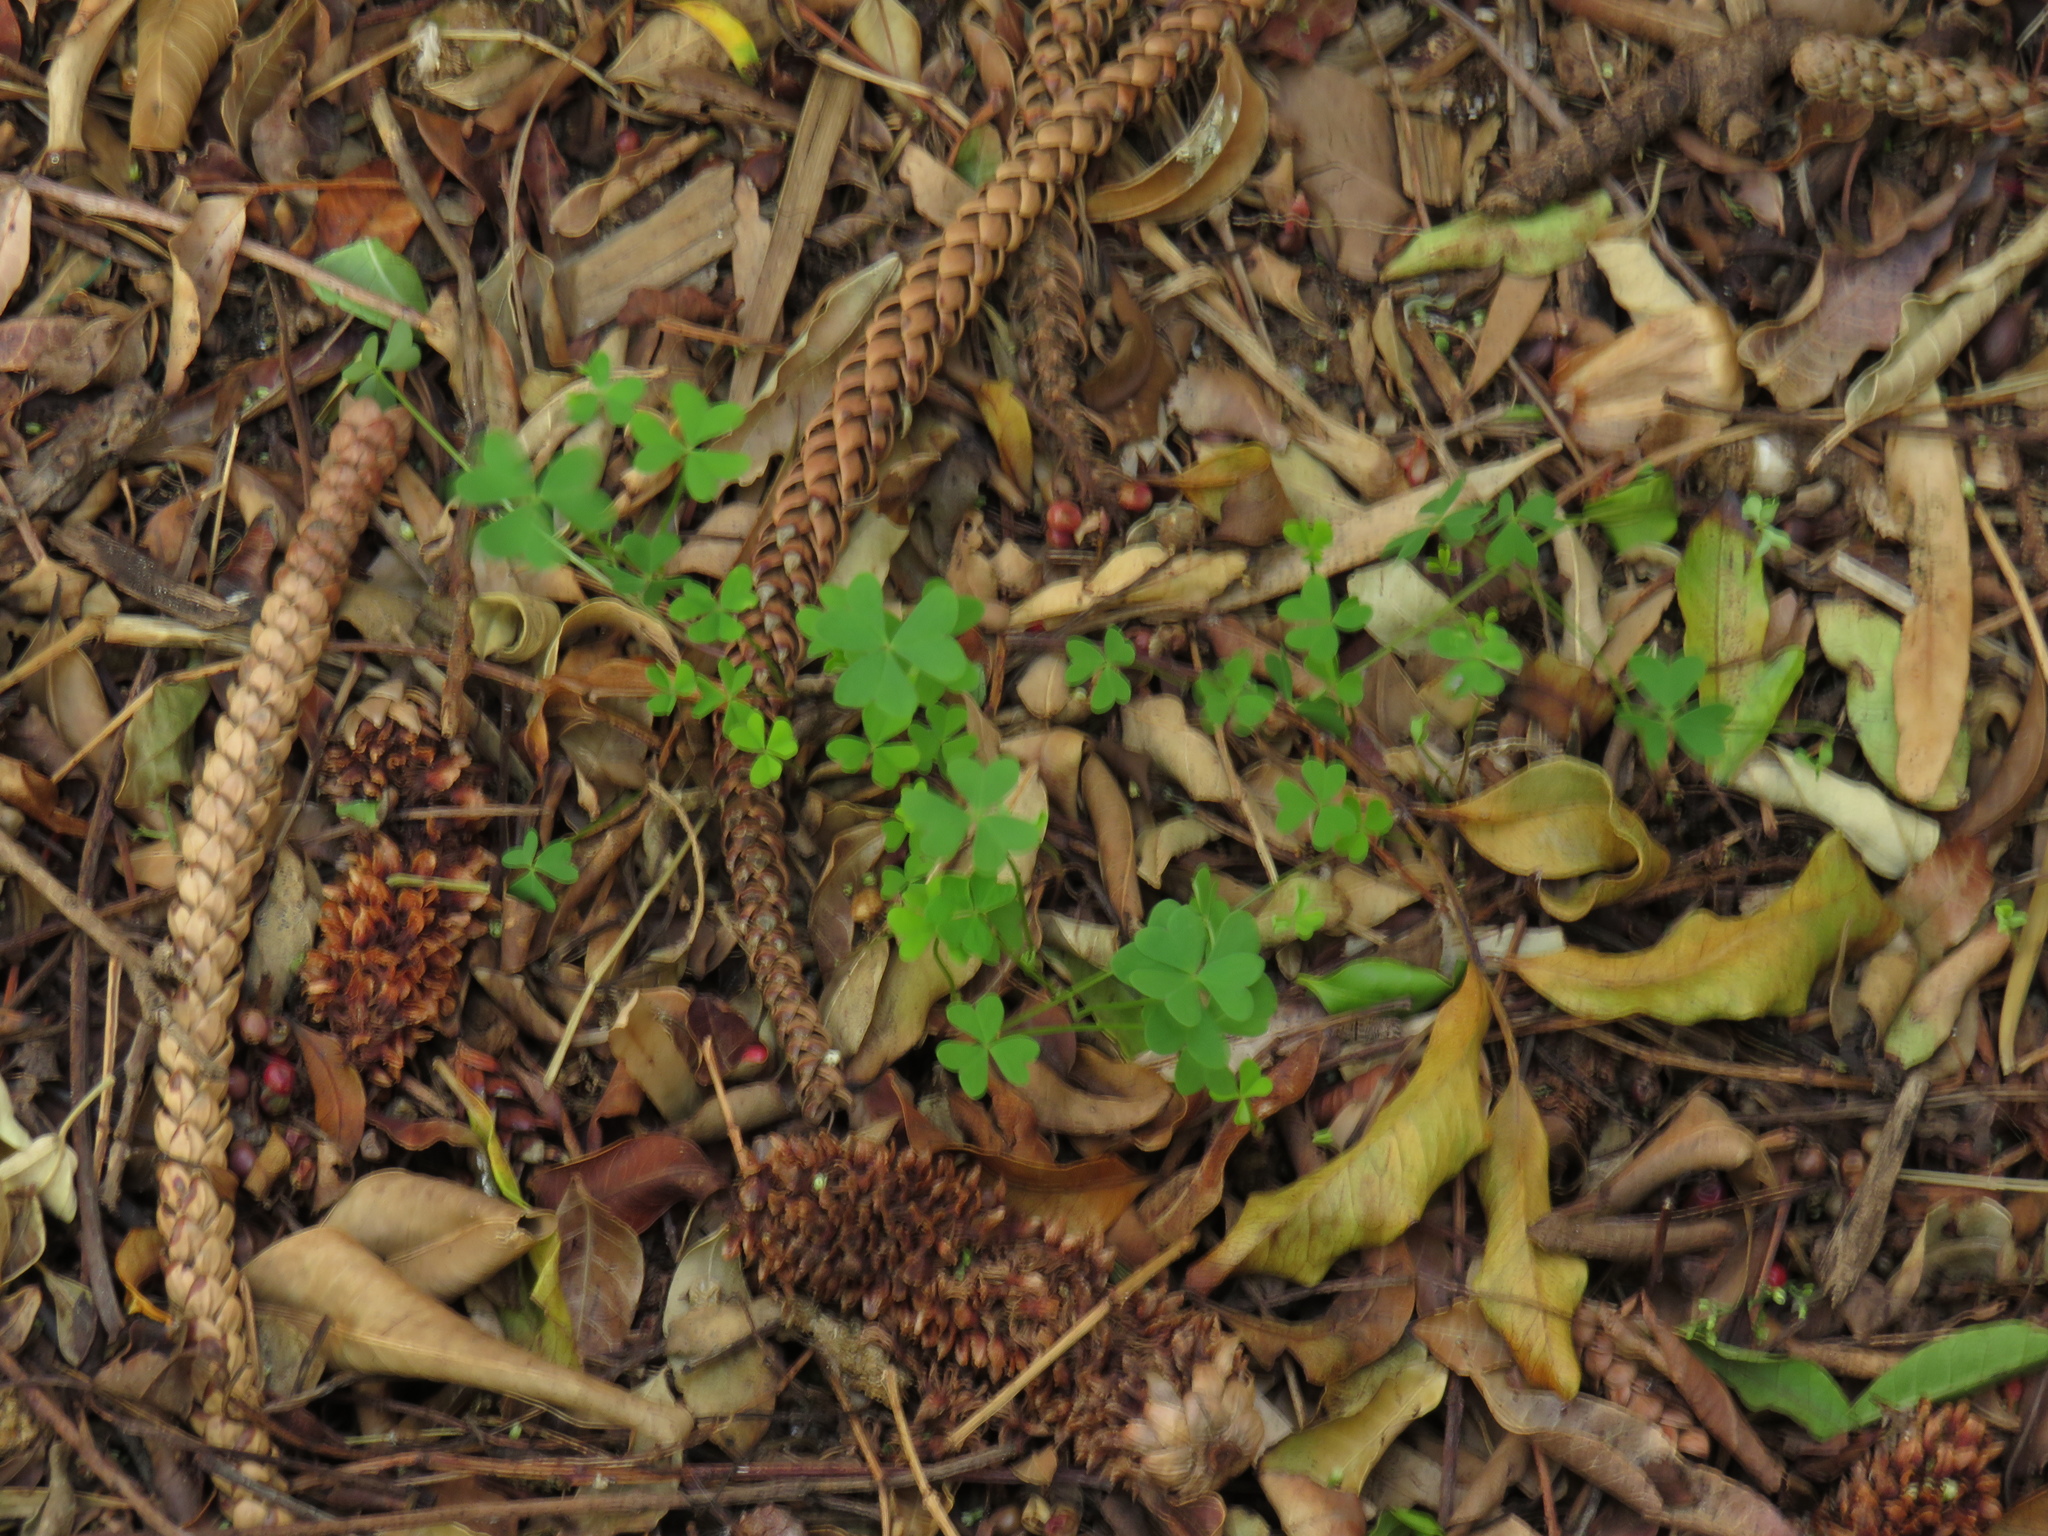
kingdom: Plantae
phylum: Tracheophyta
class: Magnoliopsida
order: Oxalidales
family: Oxalidaceae
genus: Oxalis
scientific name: Oxalis pes-caprae
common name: Bermuda-buttercup
